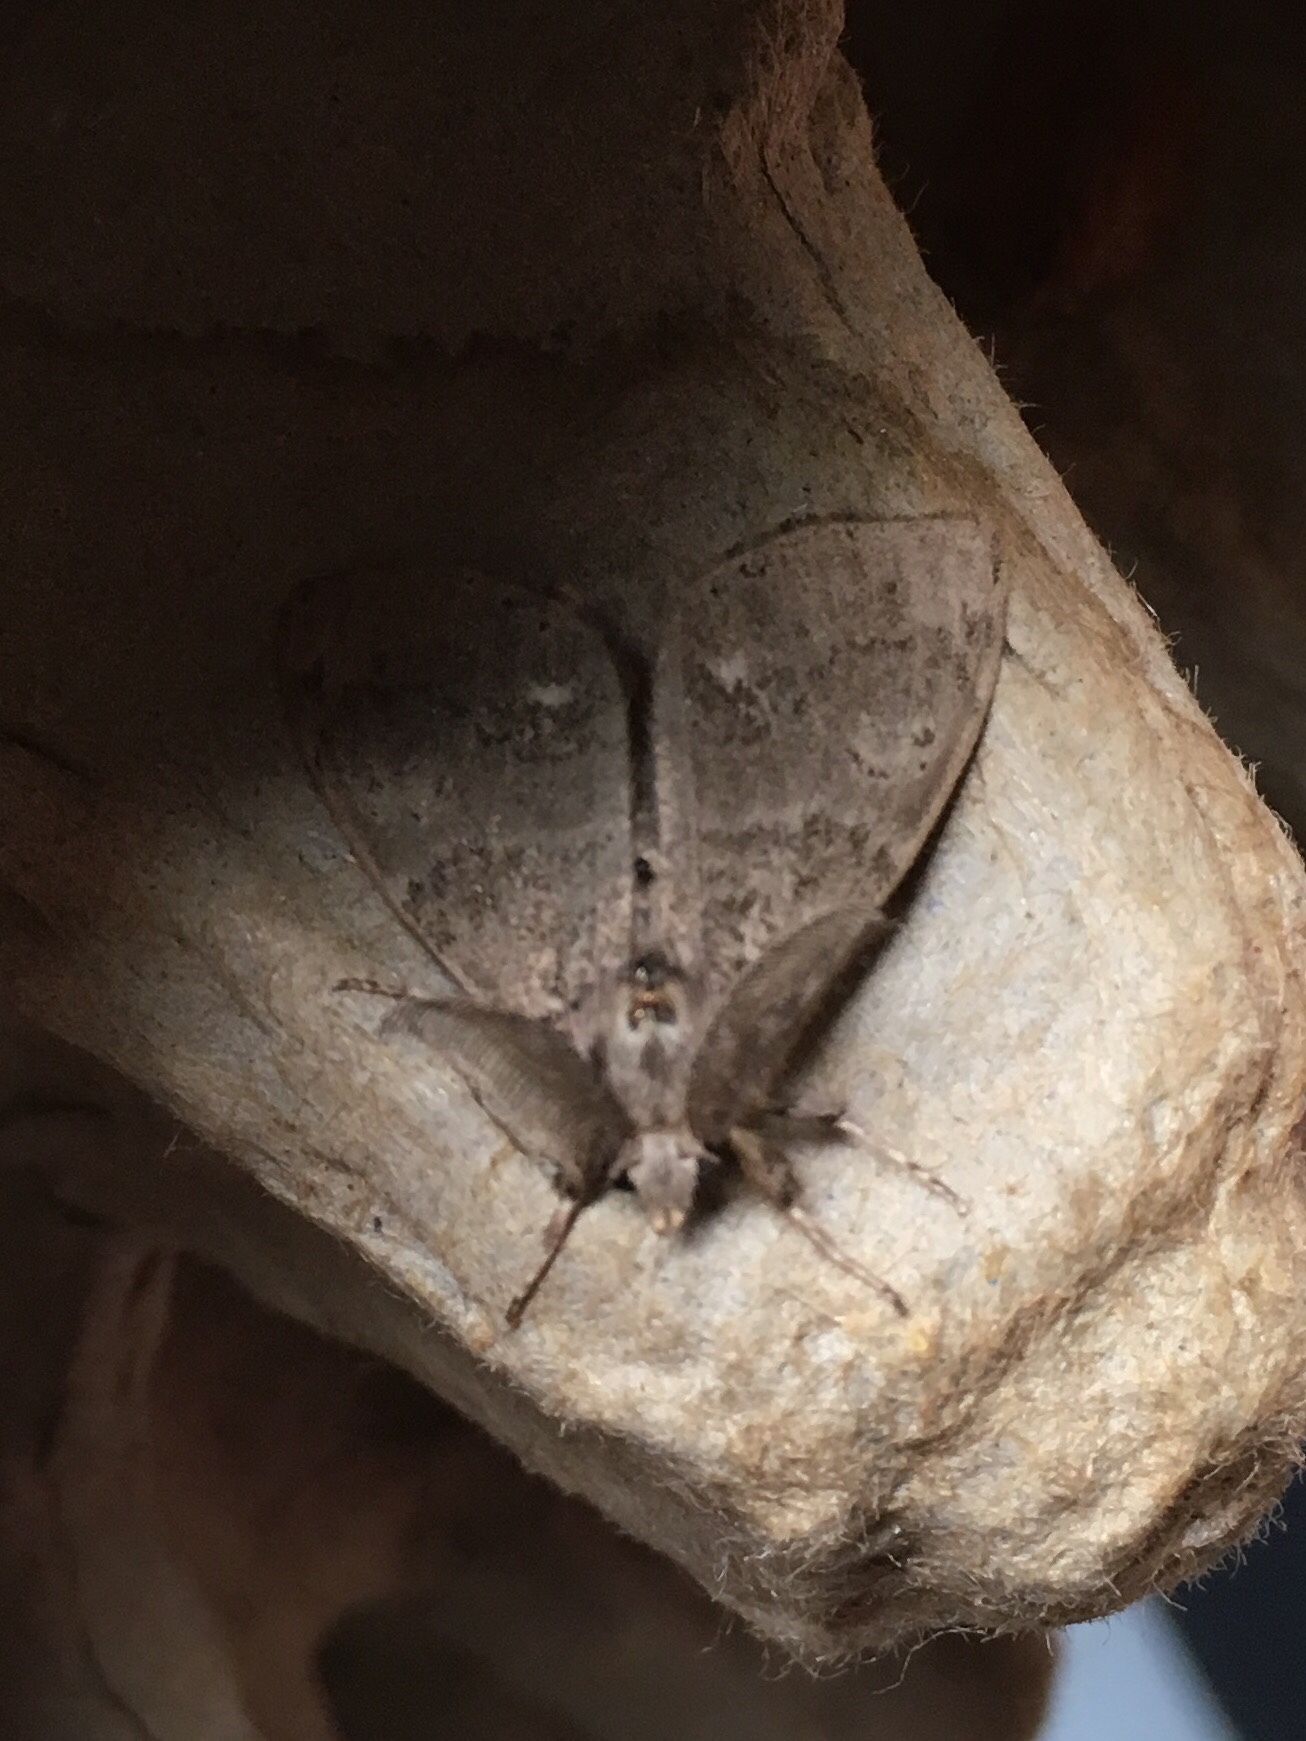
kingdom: Animalia
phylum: Arthropoda
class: Insecta
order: Lepidoptera
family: Erebidae
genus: Orgyia
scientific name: Orgyia leucostigma
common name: White-marked tussock moth
